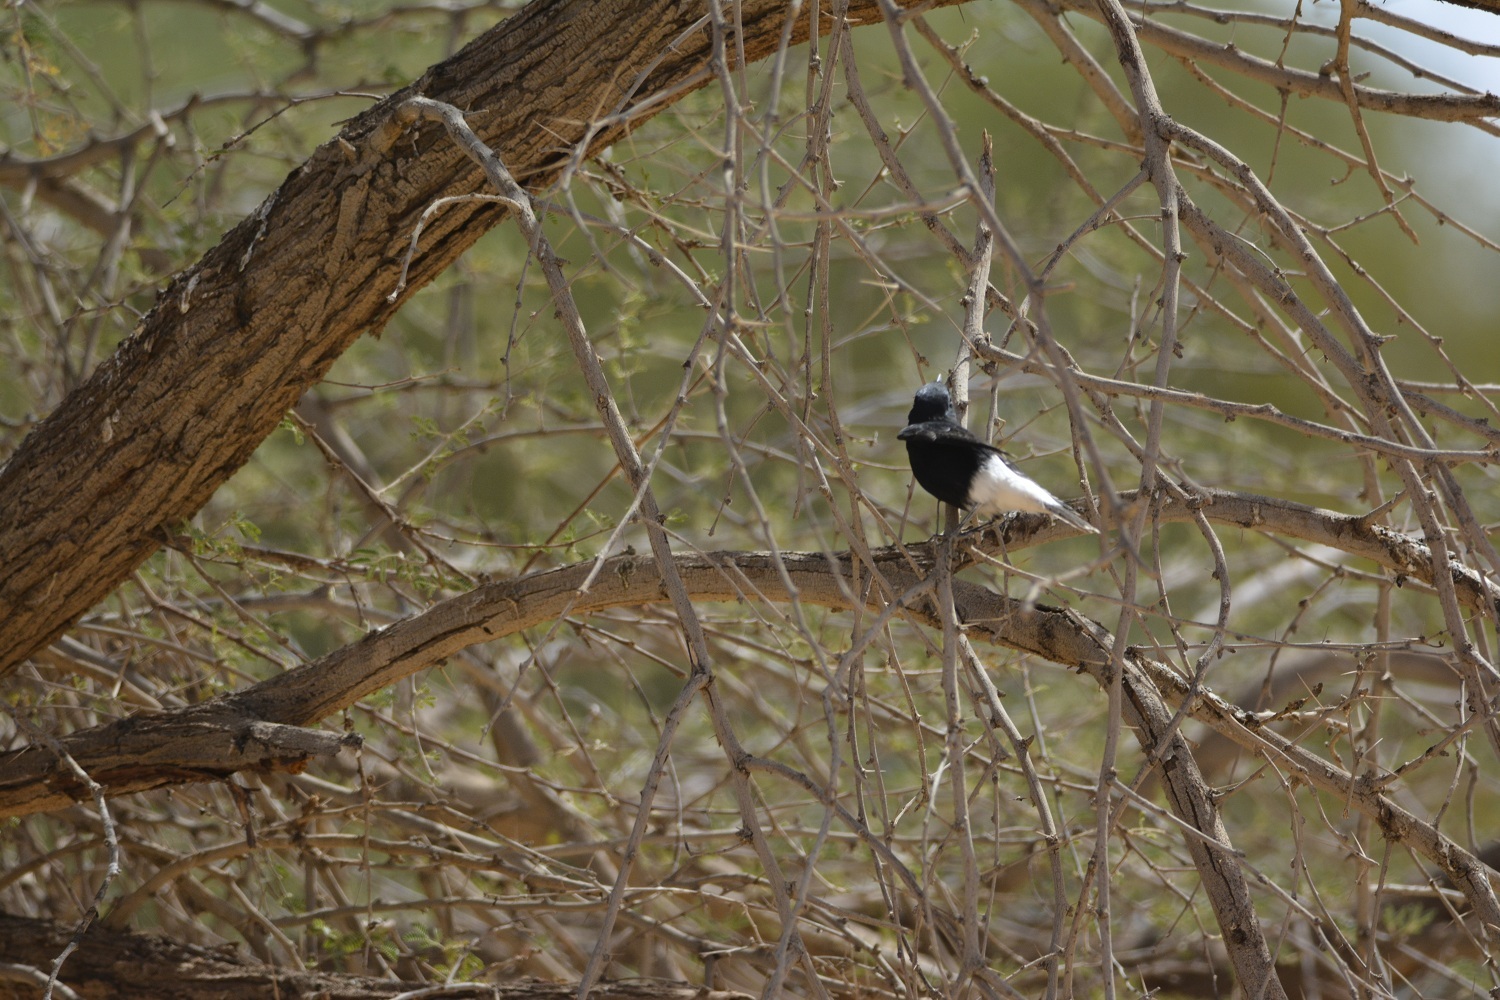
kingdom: Animalia
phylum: Chordata
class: Aves
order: Passeriformes
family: Muscicapidae
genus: Oenanthe
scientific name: Oenanthe leucopyga
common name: White-crowned wheatear
